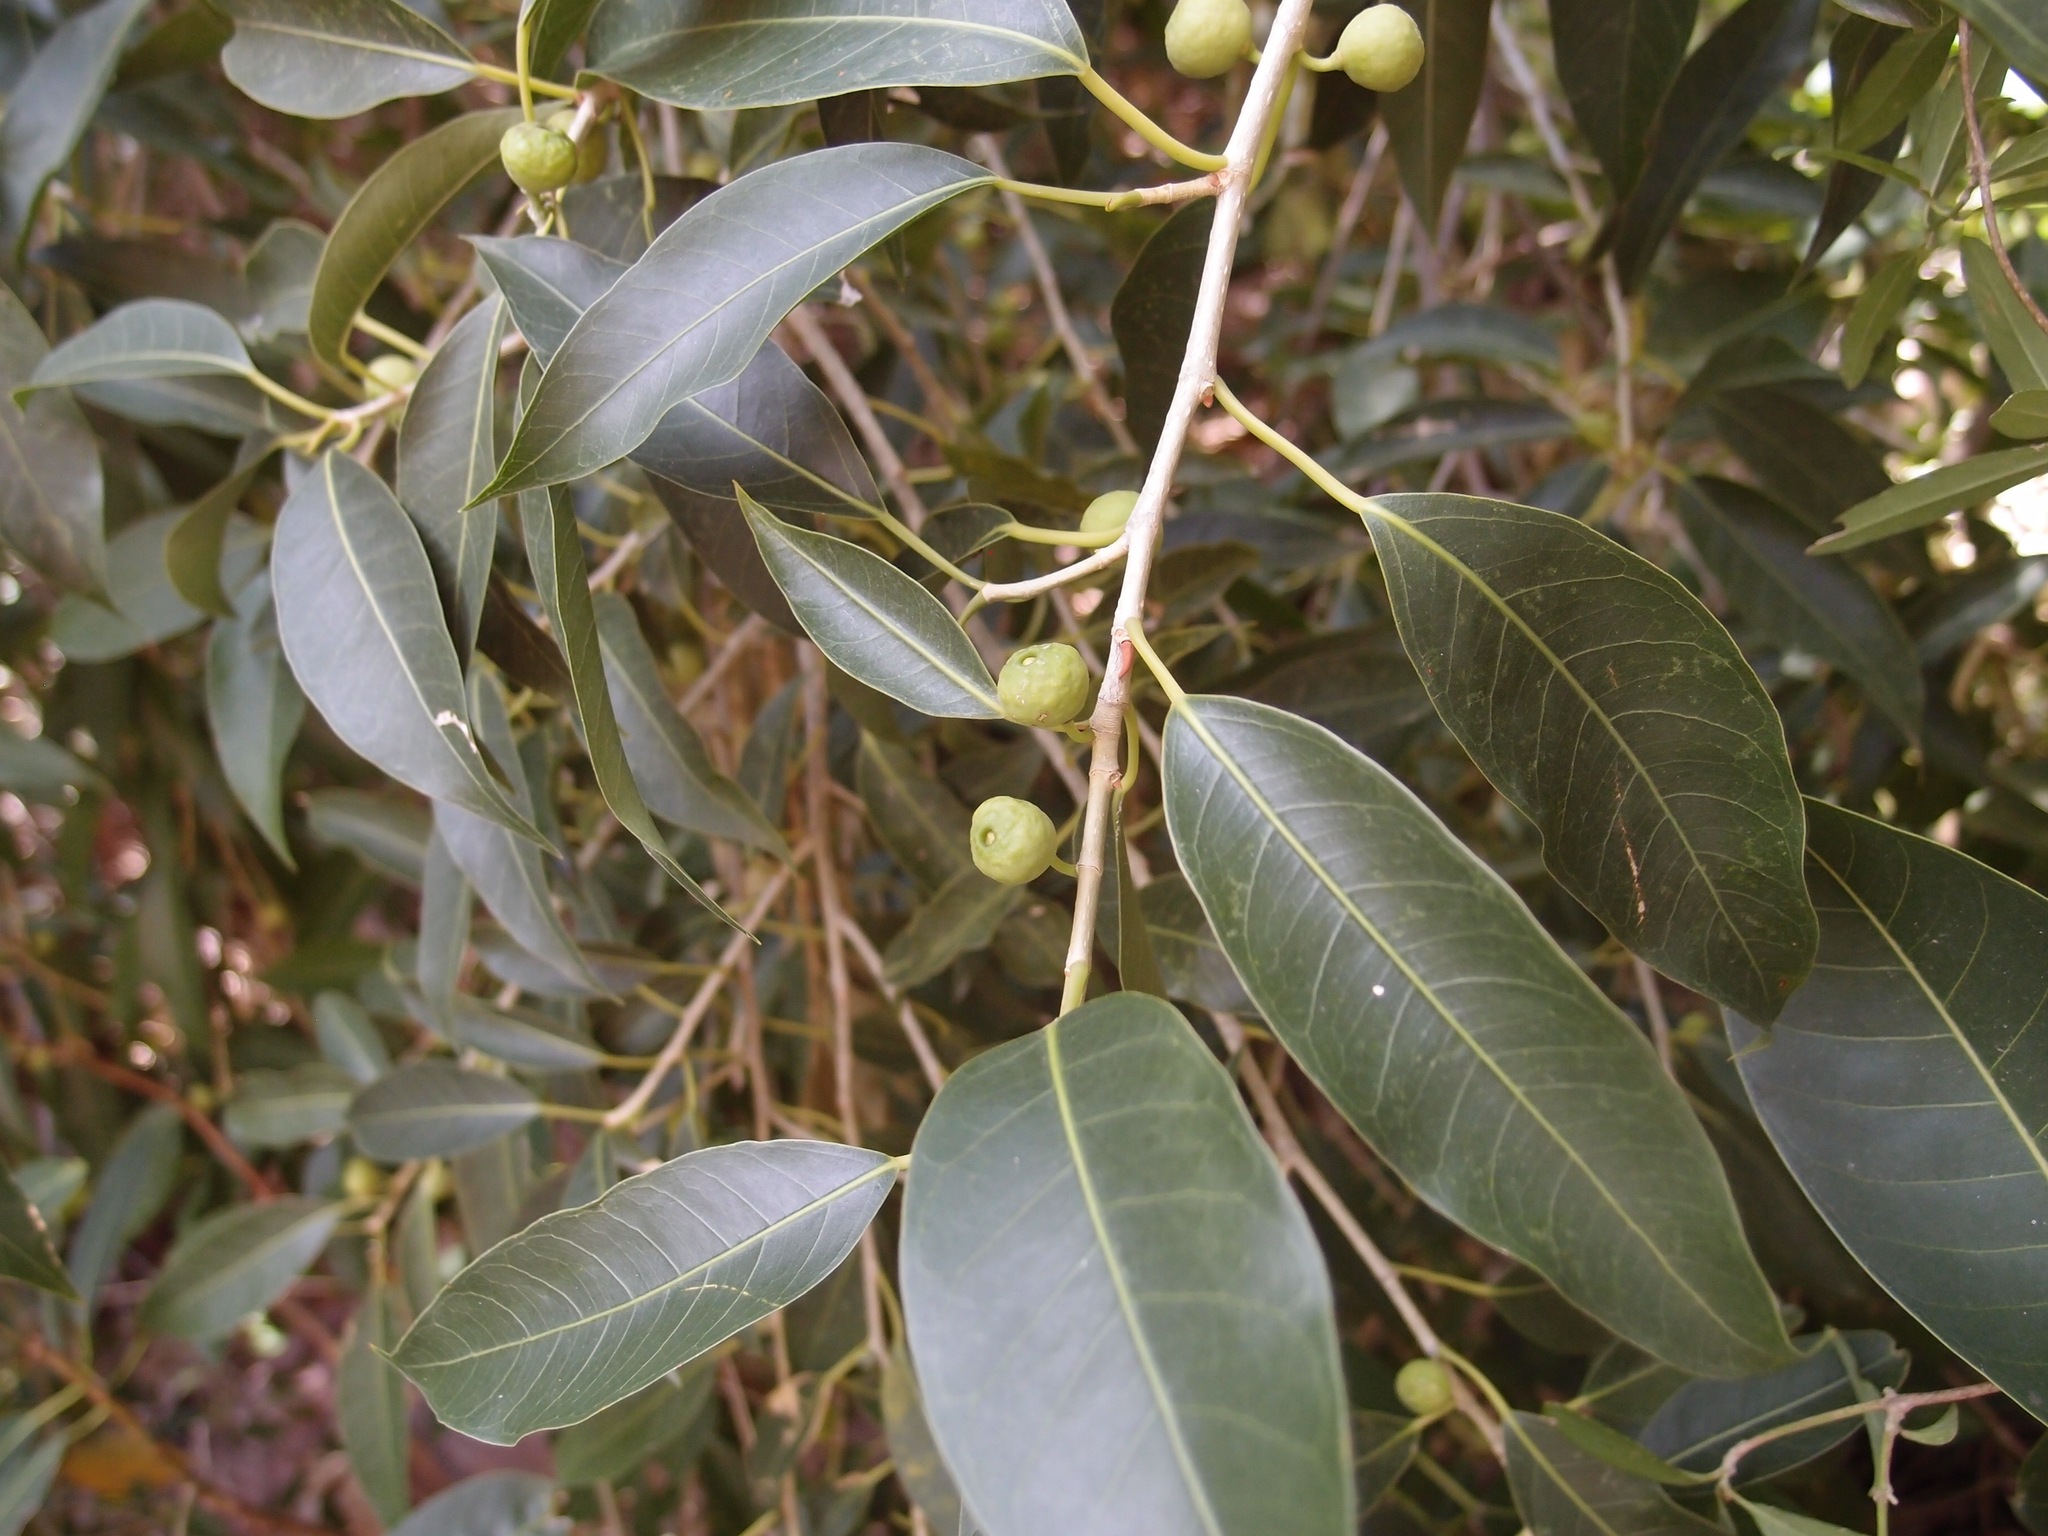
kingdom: Plantae
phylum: Tracheophyta
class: Magnoliopsida
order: Rosales
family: Moraceae
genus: Ficus
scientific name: Ficus pertusa
